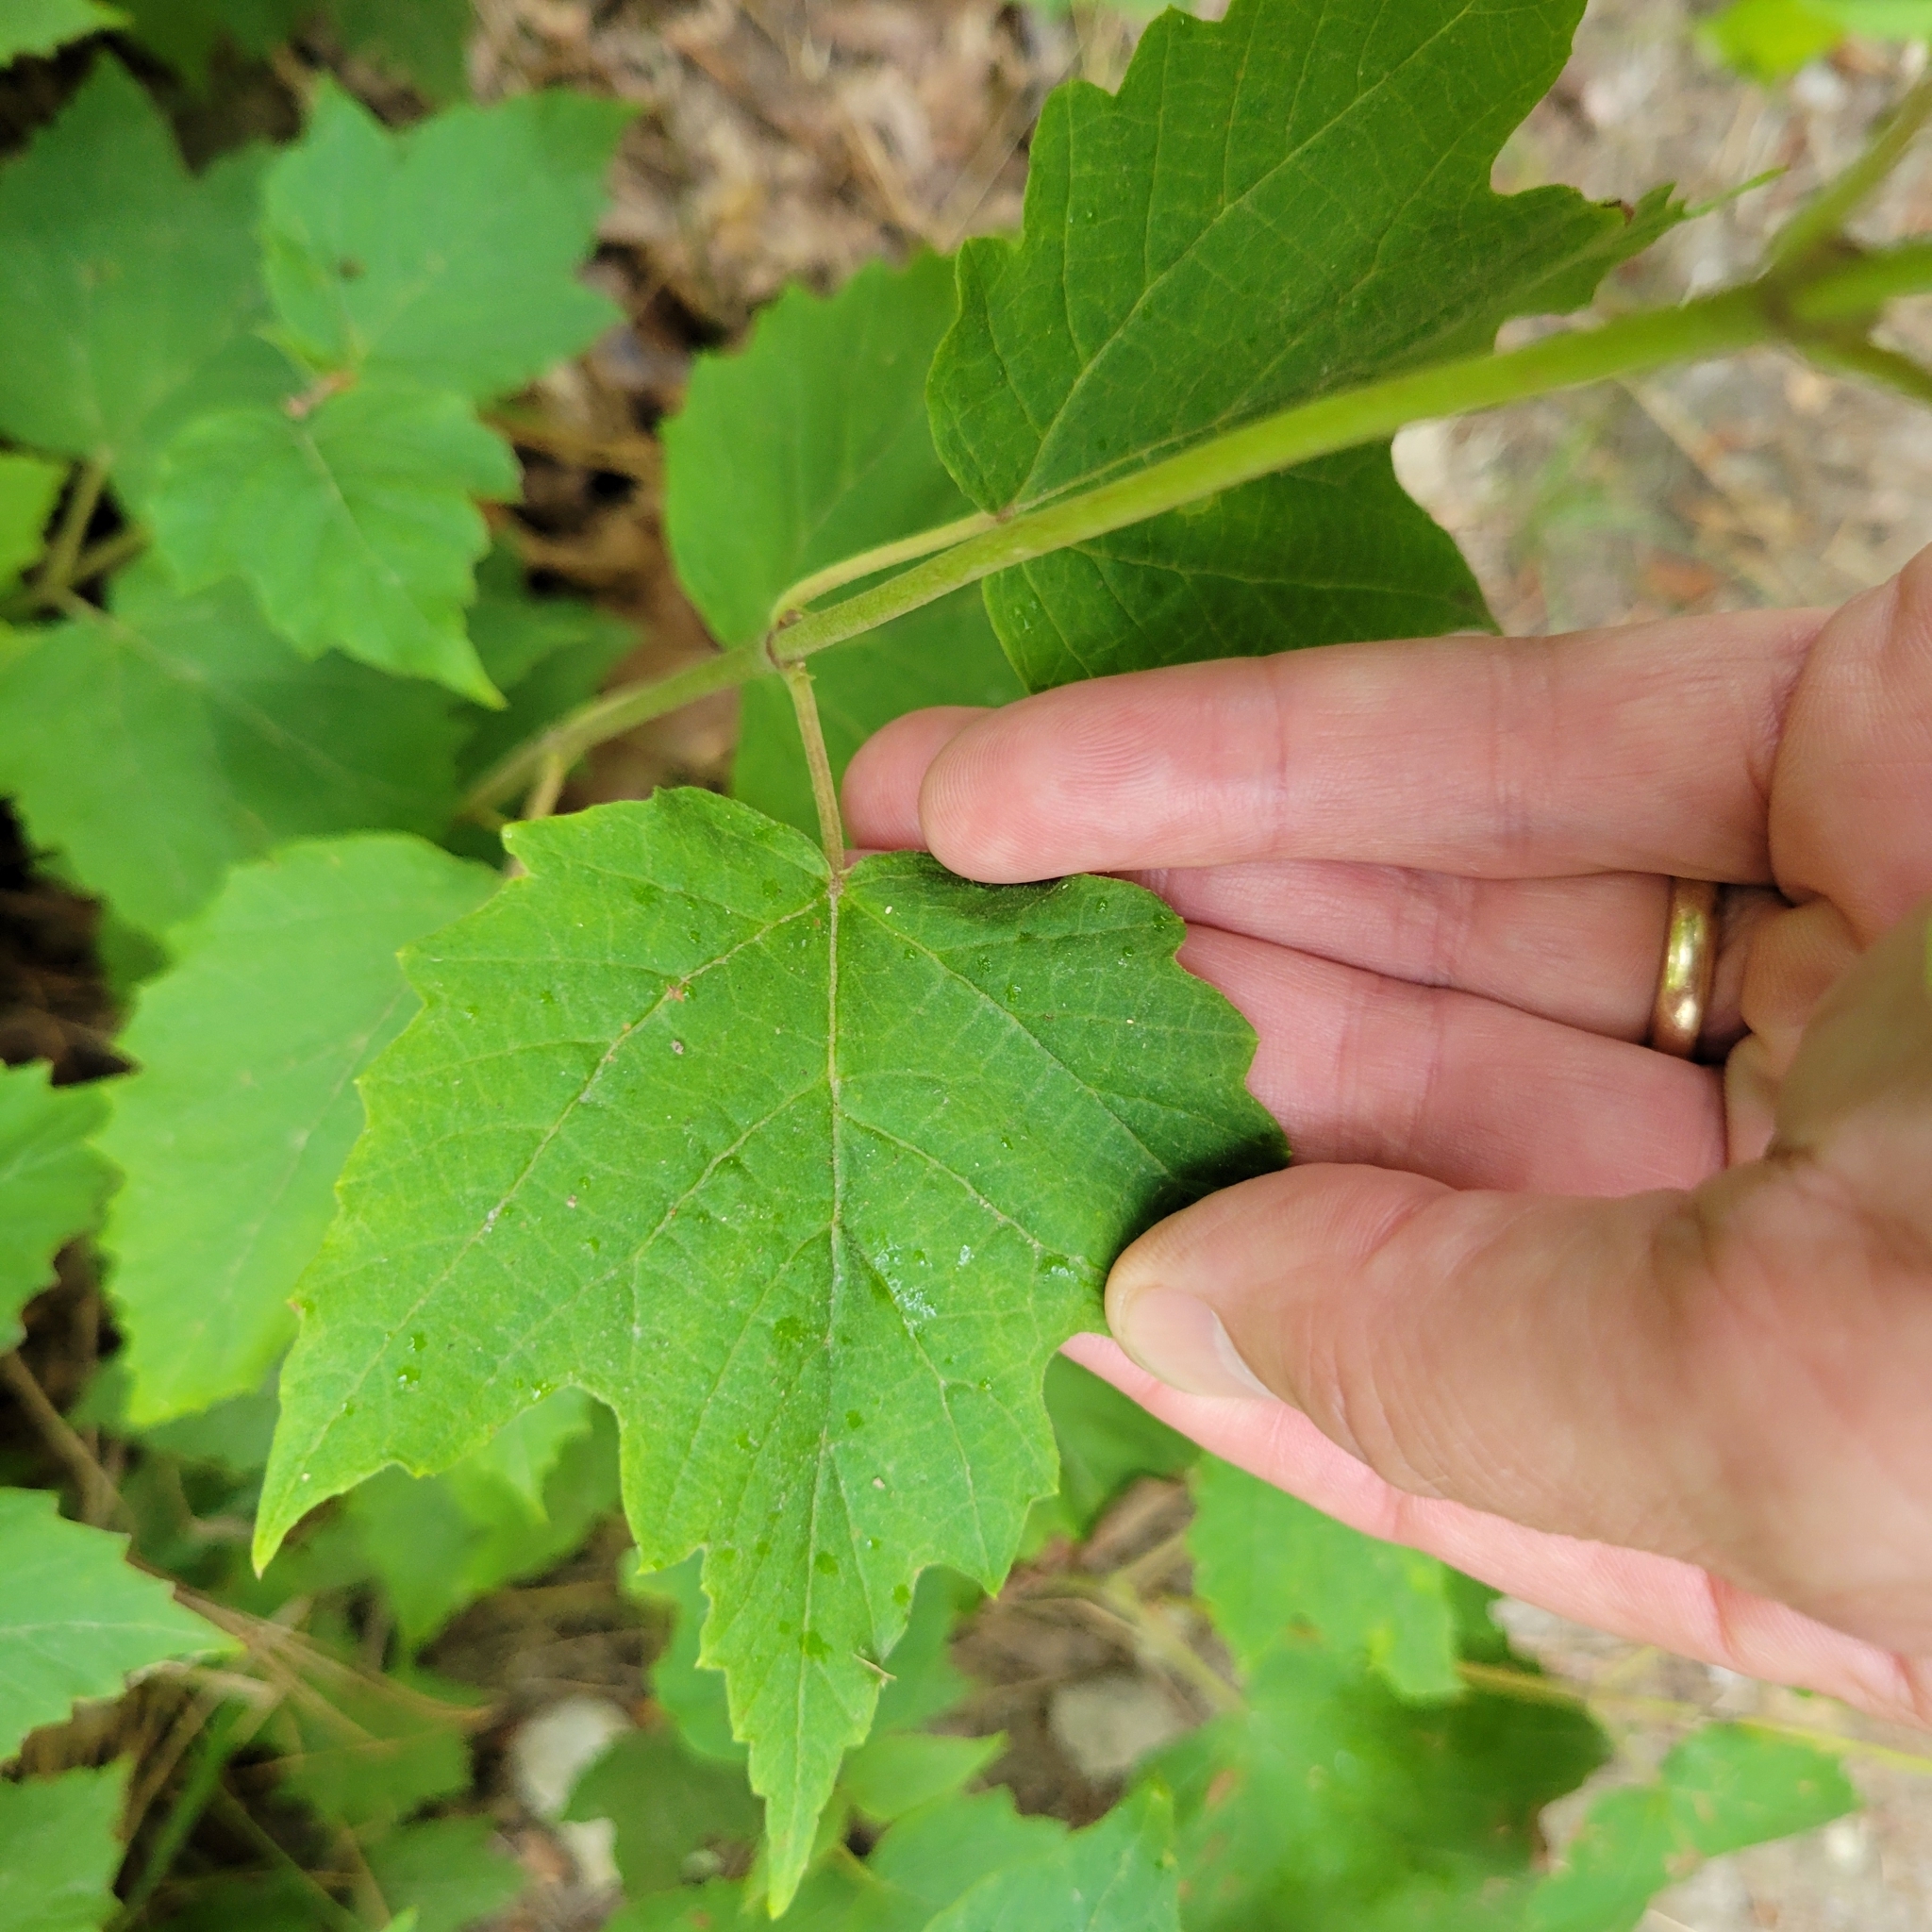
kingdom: Plantae
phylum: Tracheophyta
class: Magnoliopsida
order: Dipsacales
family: Viburnaceae
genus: Viburnum
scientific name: Viburnum acerifolium
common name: Dockmackie
